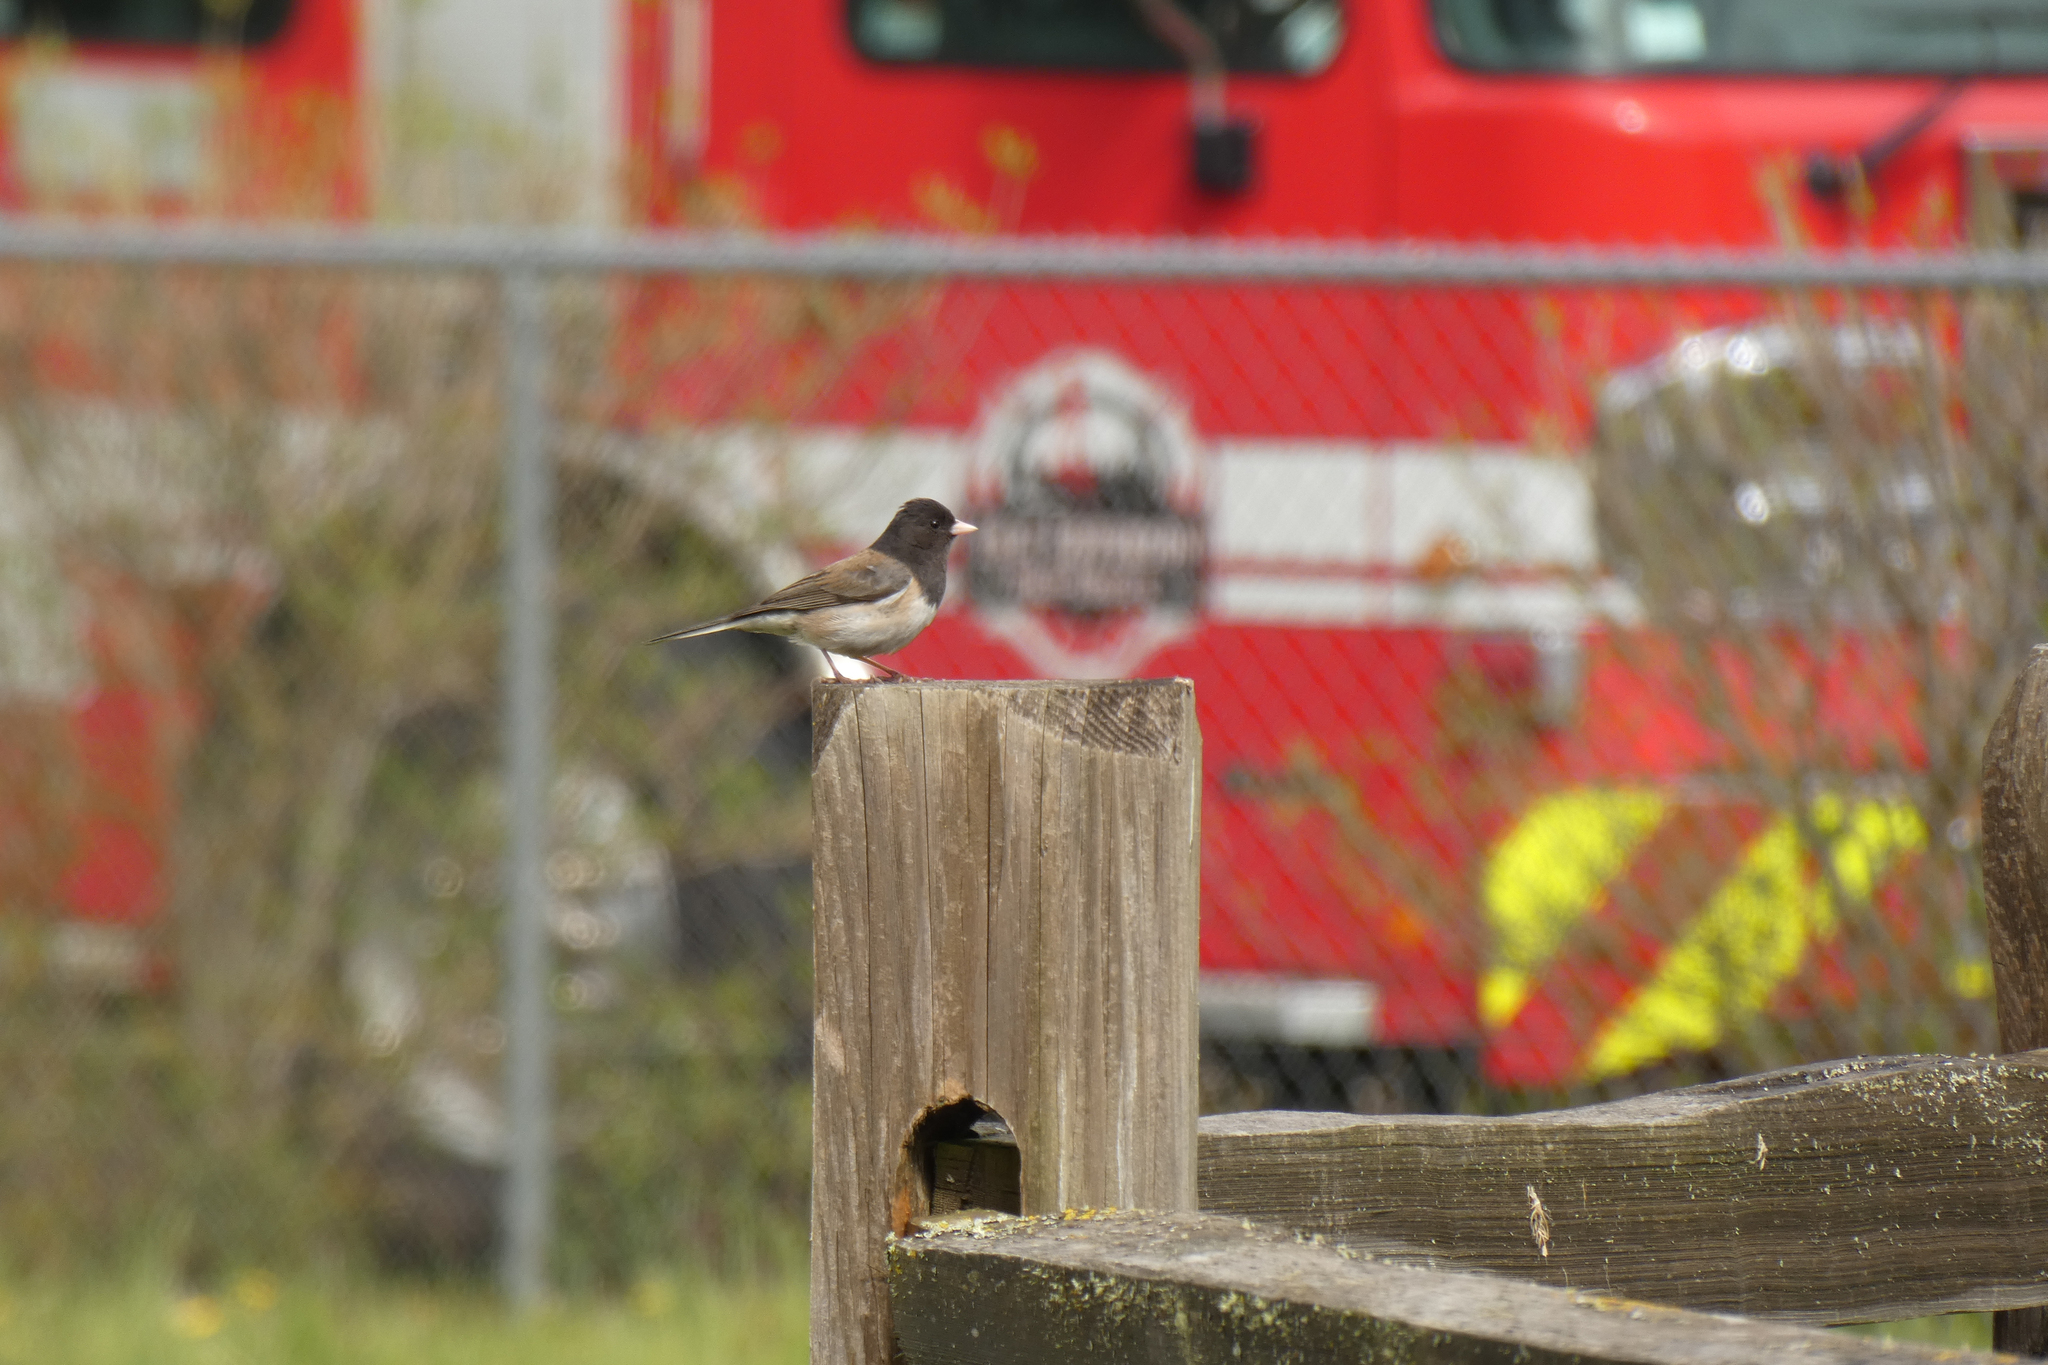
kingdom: Animalia
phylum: Chordata
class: Aves
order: Passeriformes
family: Passerellidae
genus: Junco
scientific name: Junco hyemalis
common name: Dark-eyed junco
